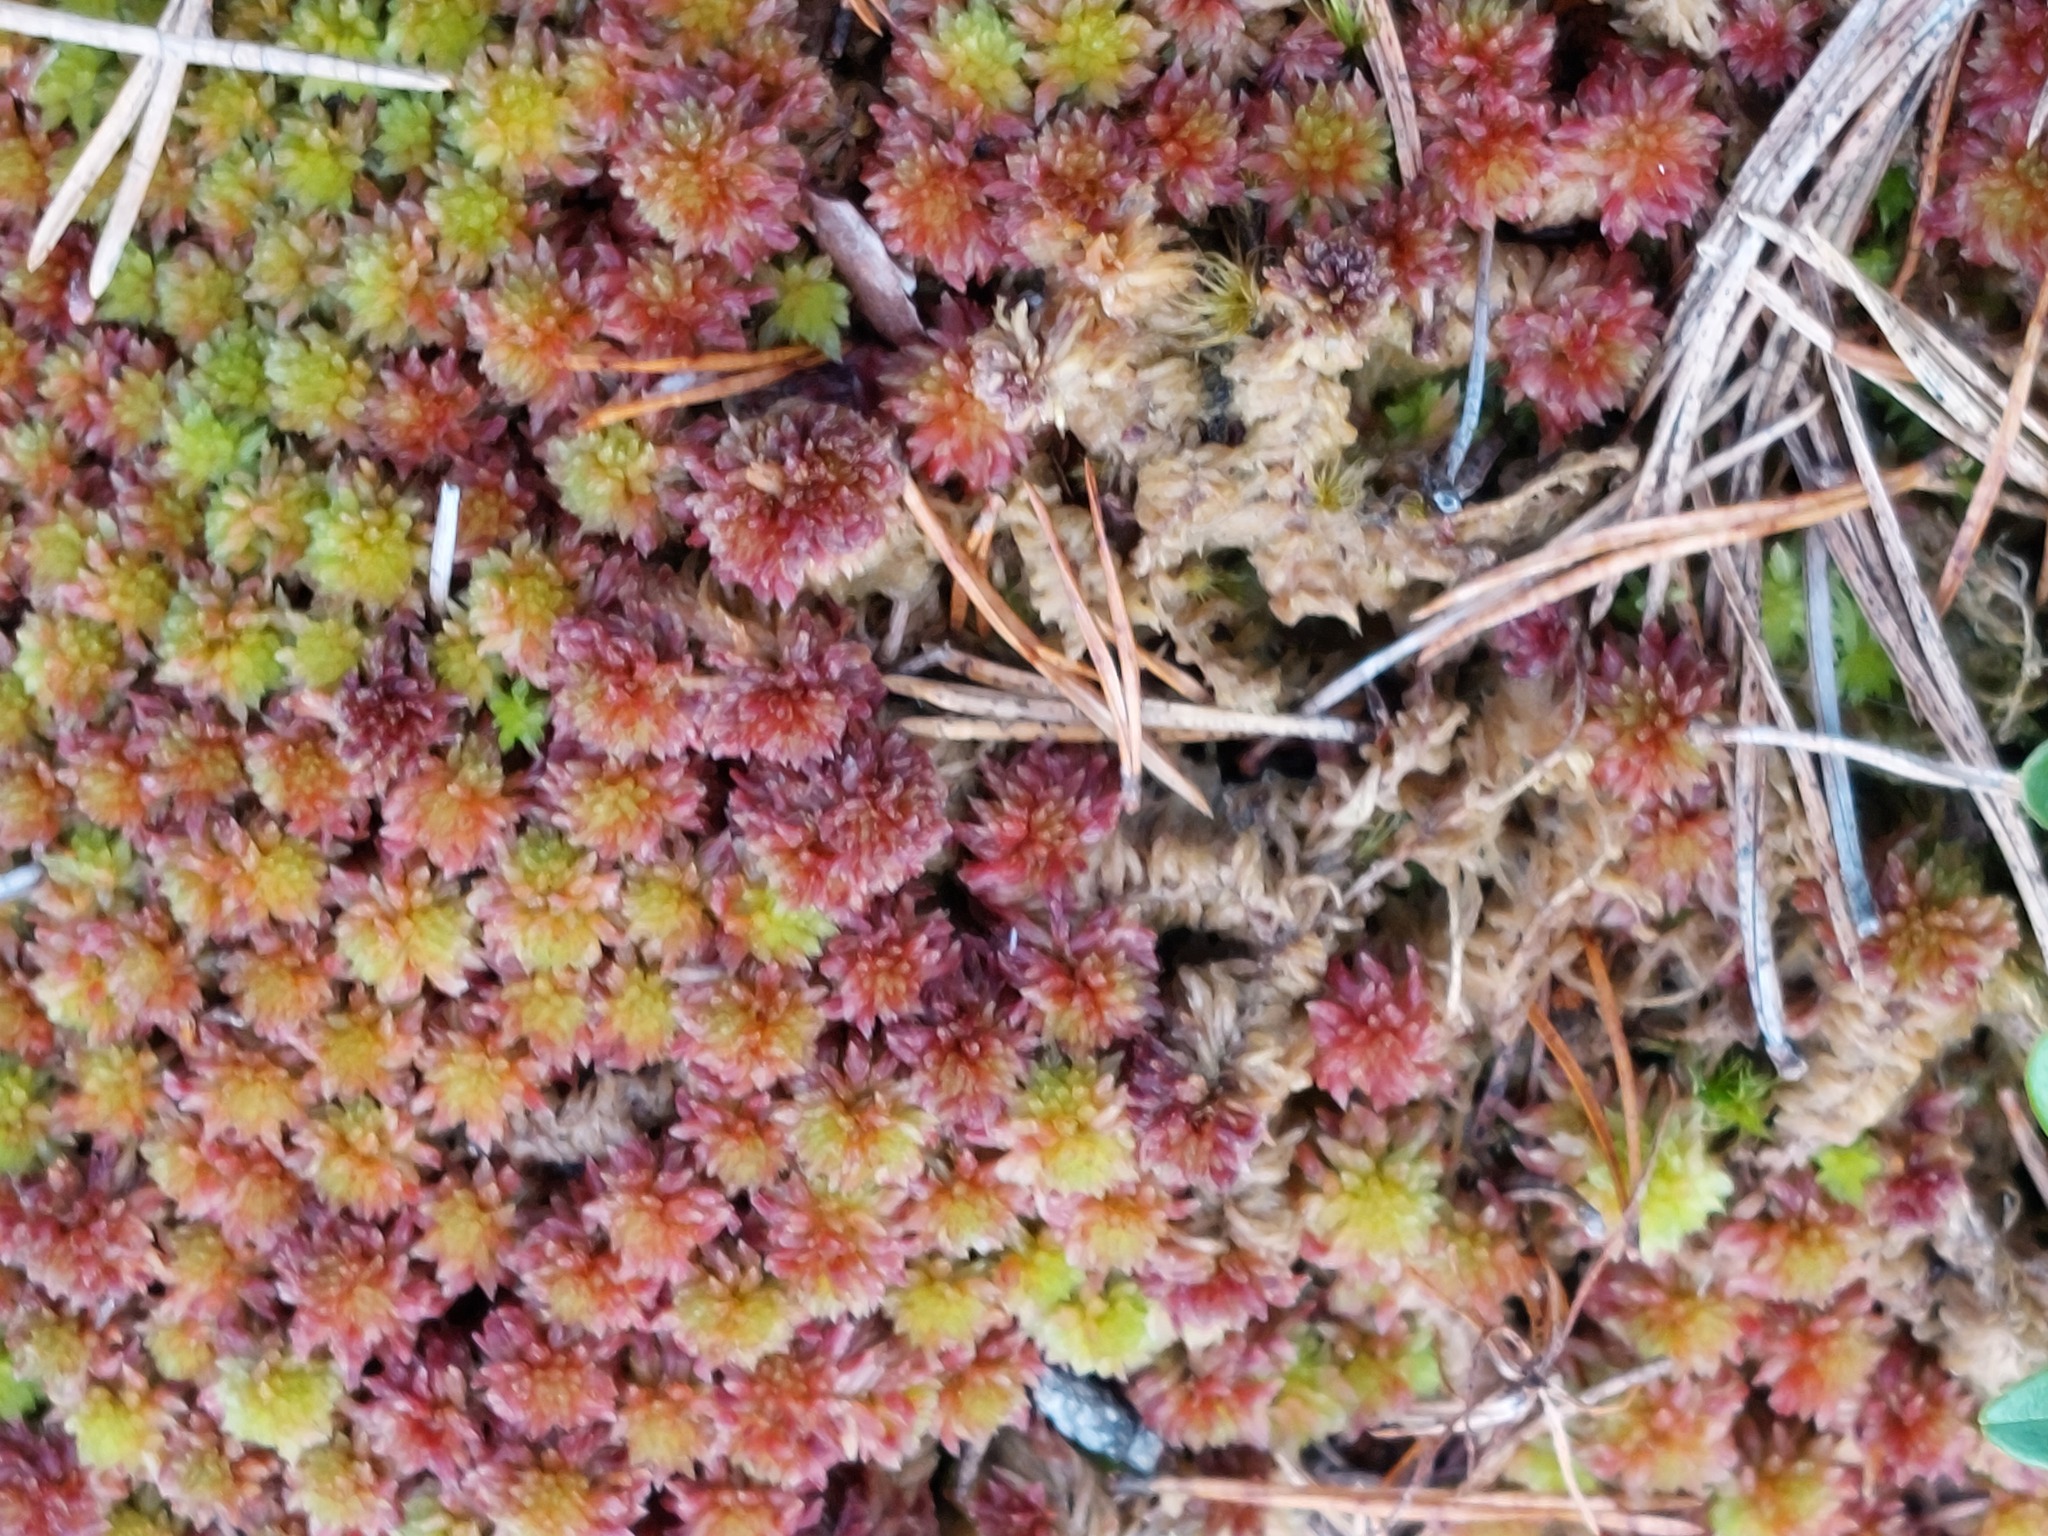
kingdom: Plantae
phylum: Bryophyta
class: Sphagnopsida
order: Sphagnales
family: Sphagnaceae
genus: Sphagnum
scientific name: Sphagnum capillifolium
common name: Small red peat moss
